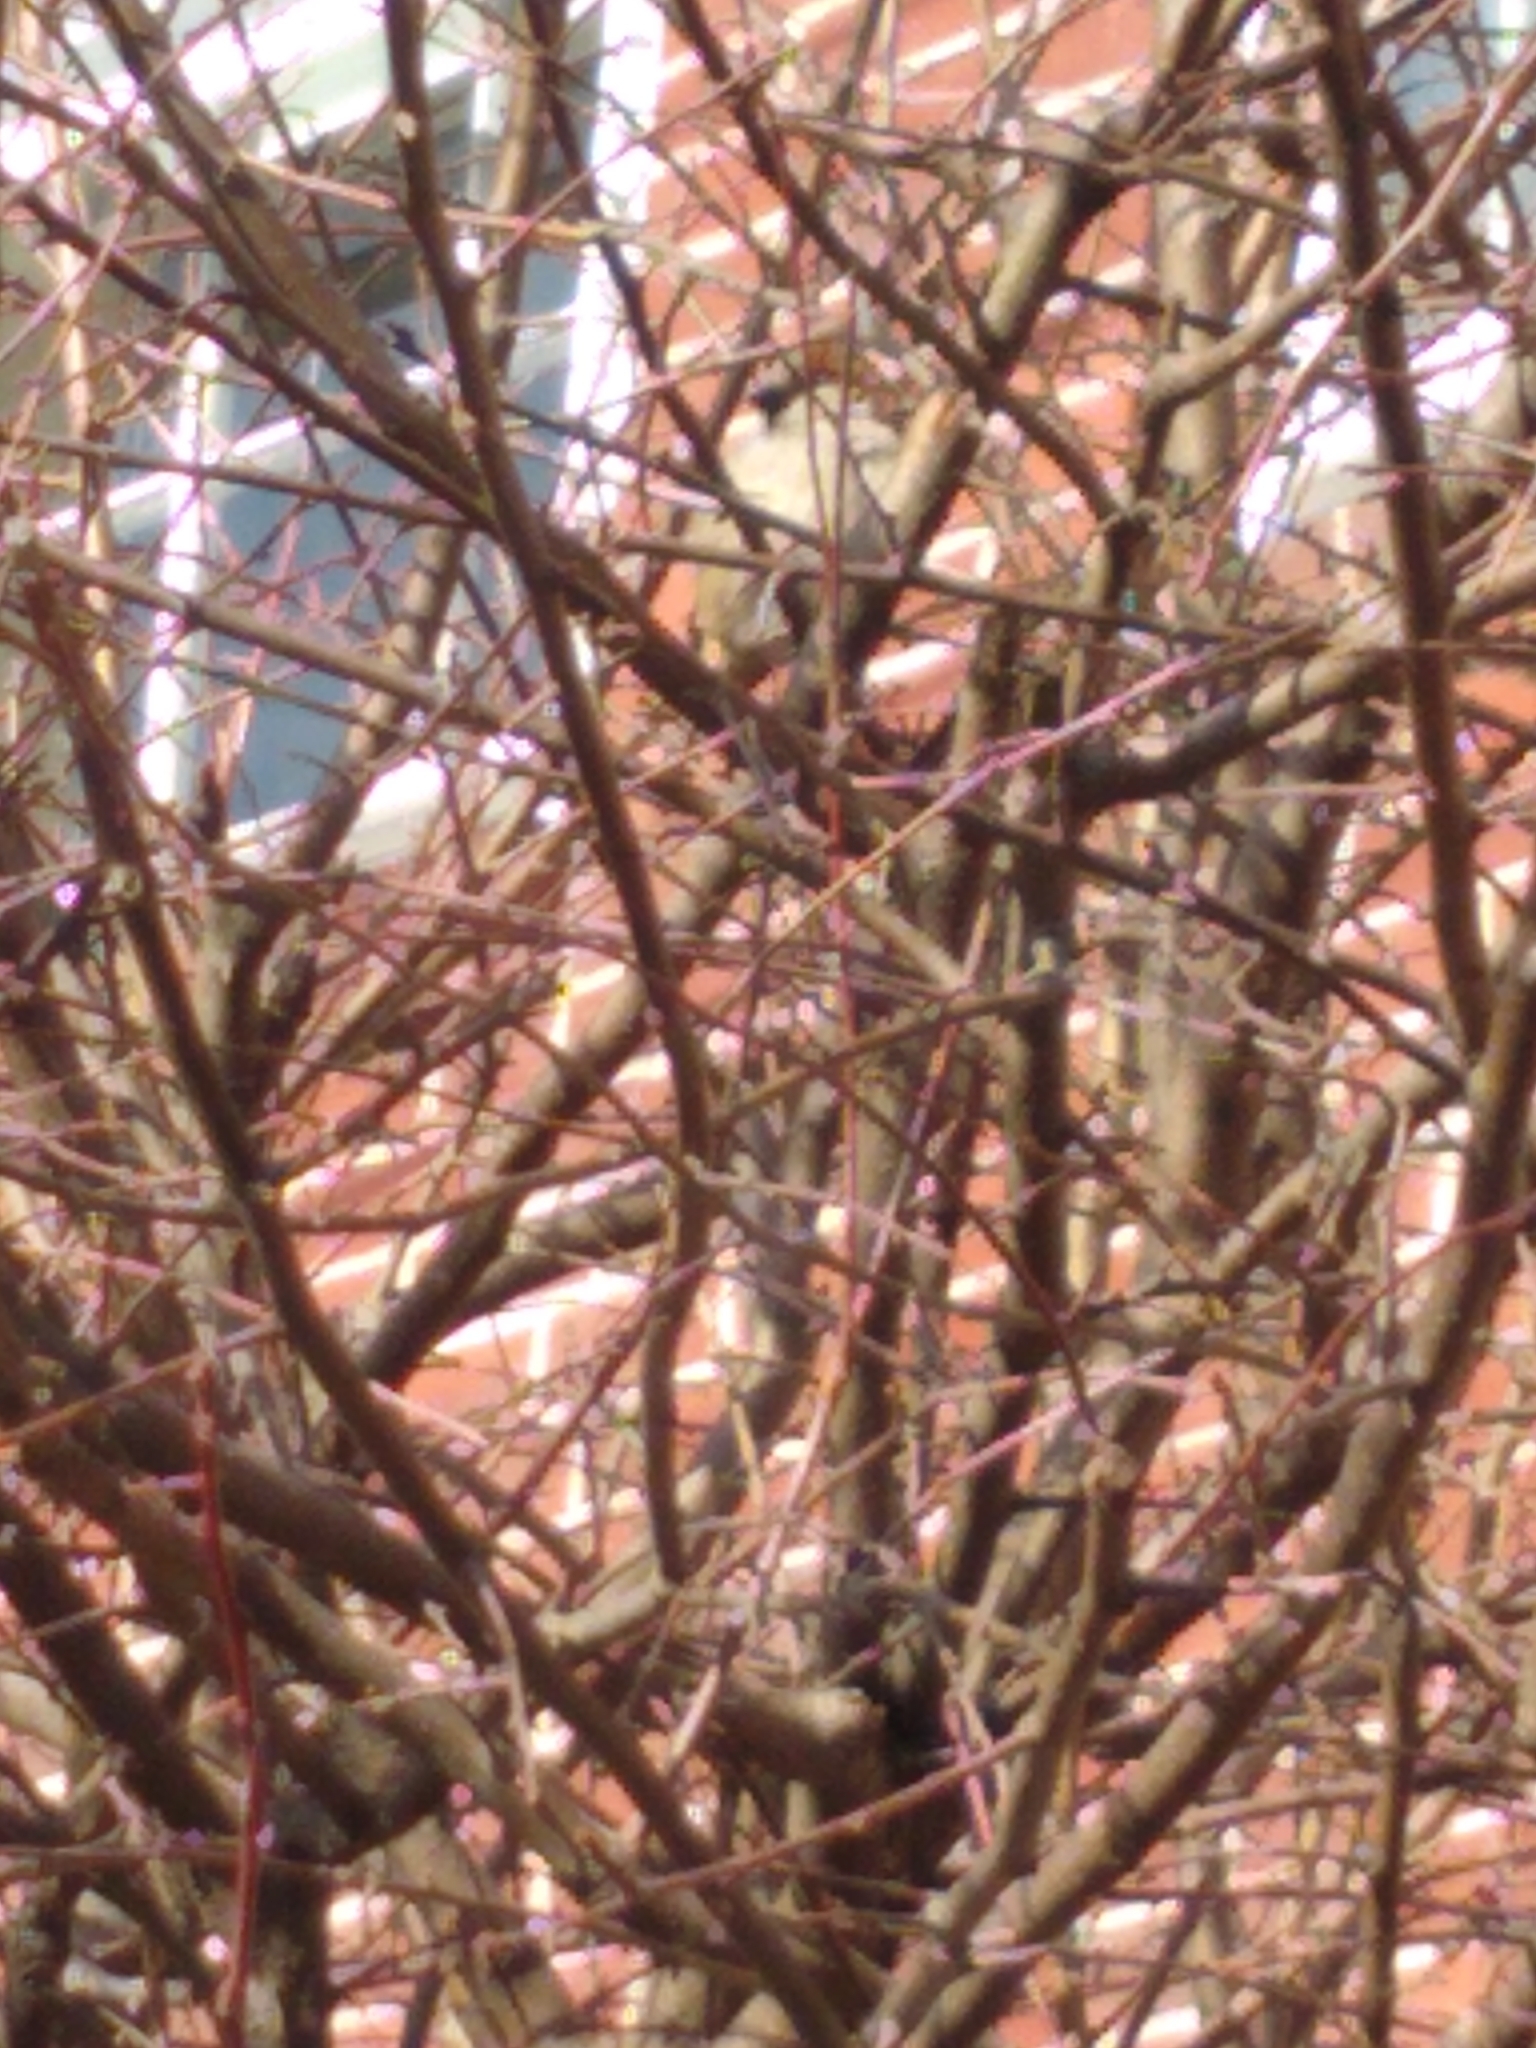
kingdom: Animalia
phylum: Chordata
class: Aves
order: Passeriformes
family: Passeridae
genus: Passer
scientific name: Passer domesticus
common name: House sparrow
